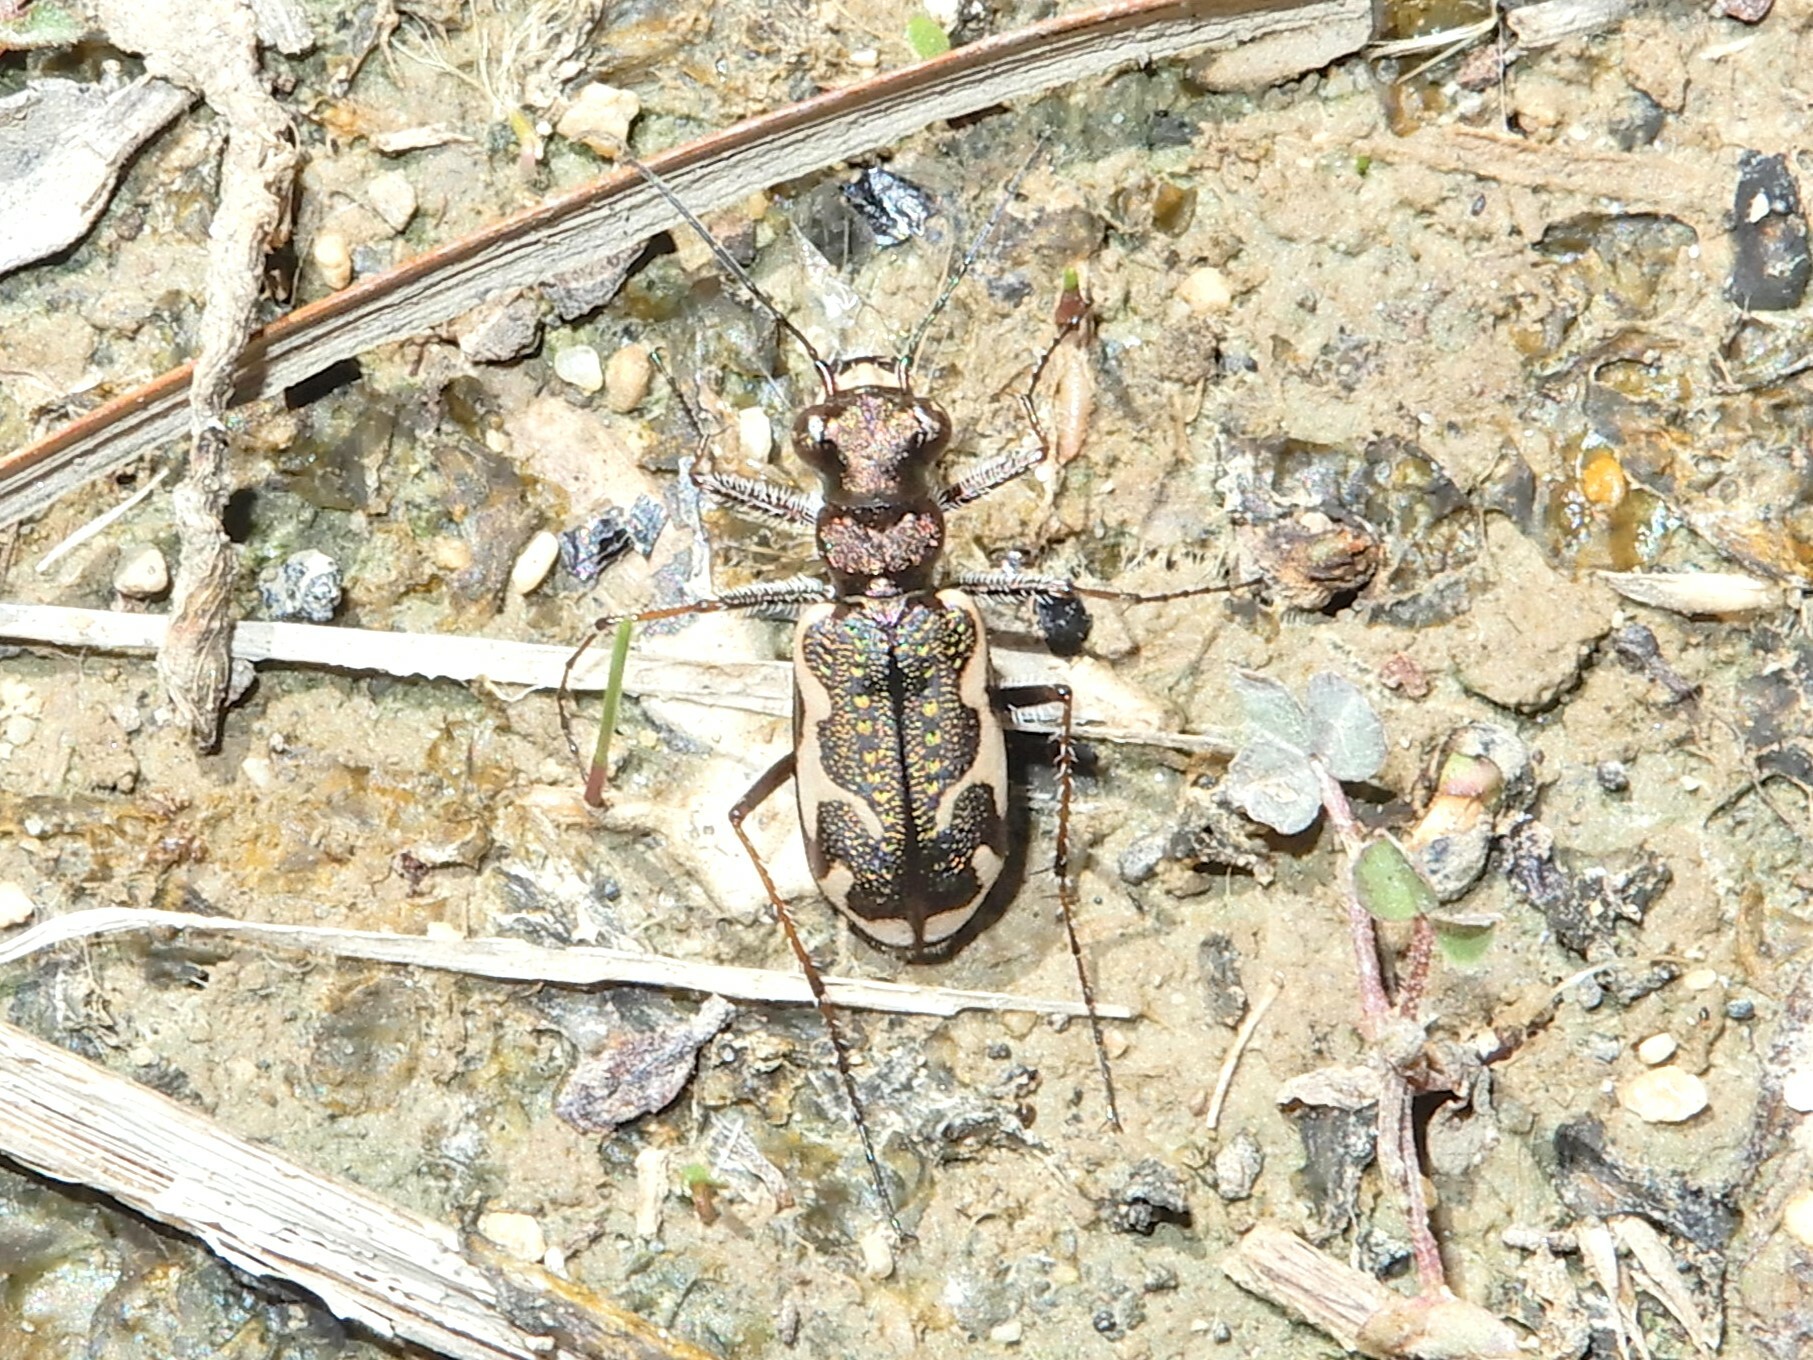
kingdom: Animalia
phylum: Arthropoda
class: Insecta
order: Coleoptera
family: Carabidae
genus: Neocicindela
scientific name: Neocicindela tuberculata
